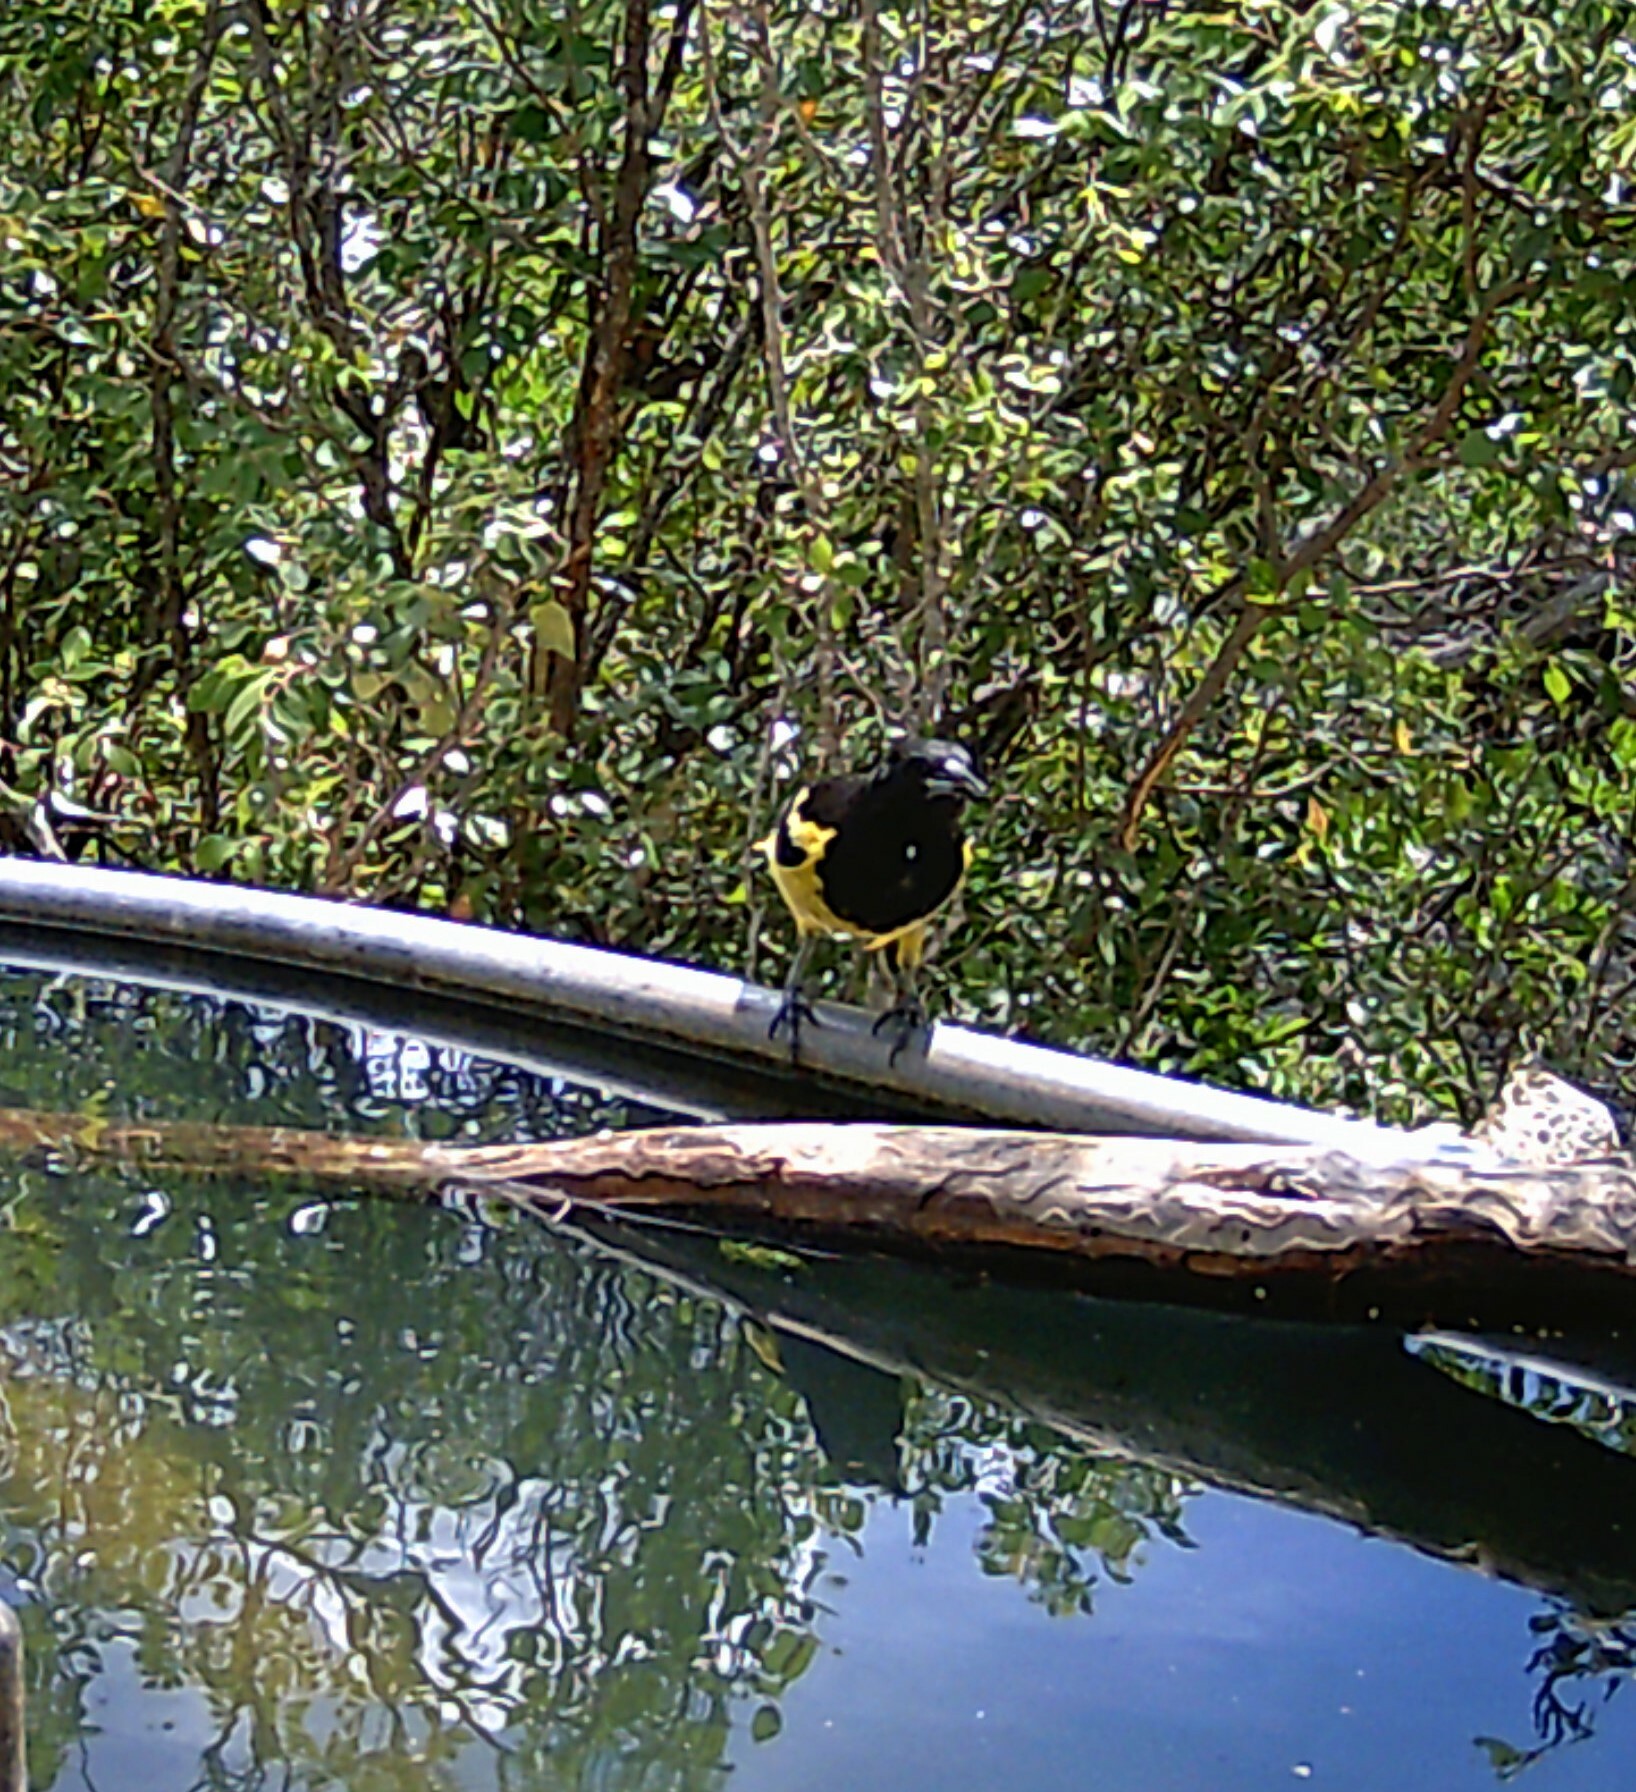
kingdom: Animalia
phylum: Chordata
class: Aves
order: Passeriformes
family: Icteridae
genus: Icterus
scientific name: Icterus parisorum
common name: Scott's oriole
